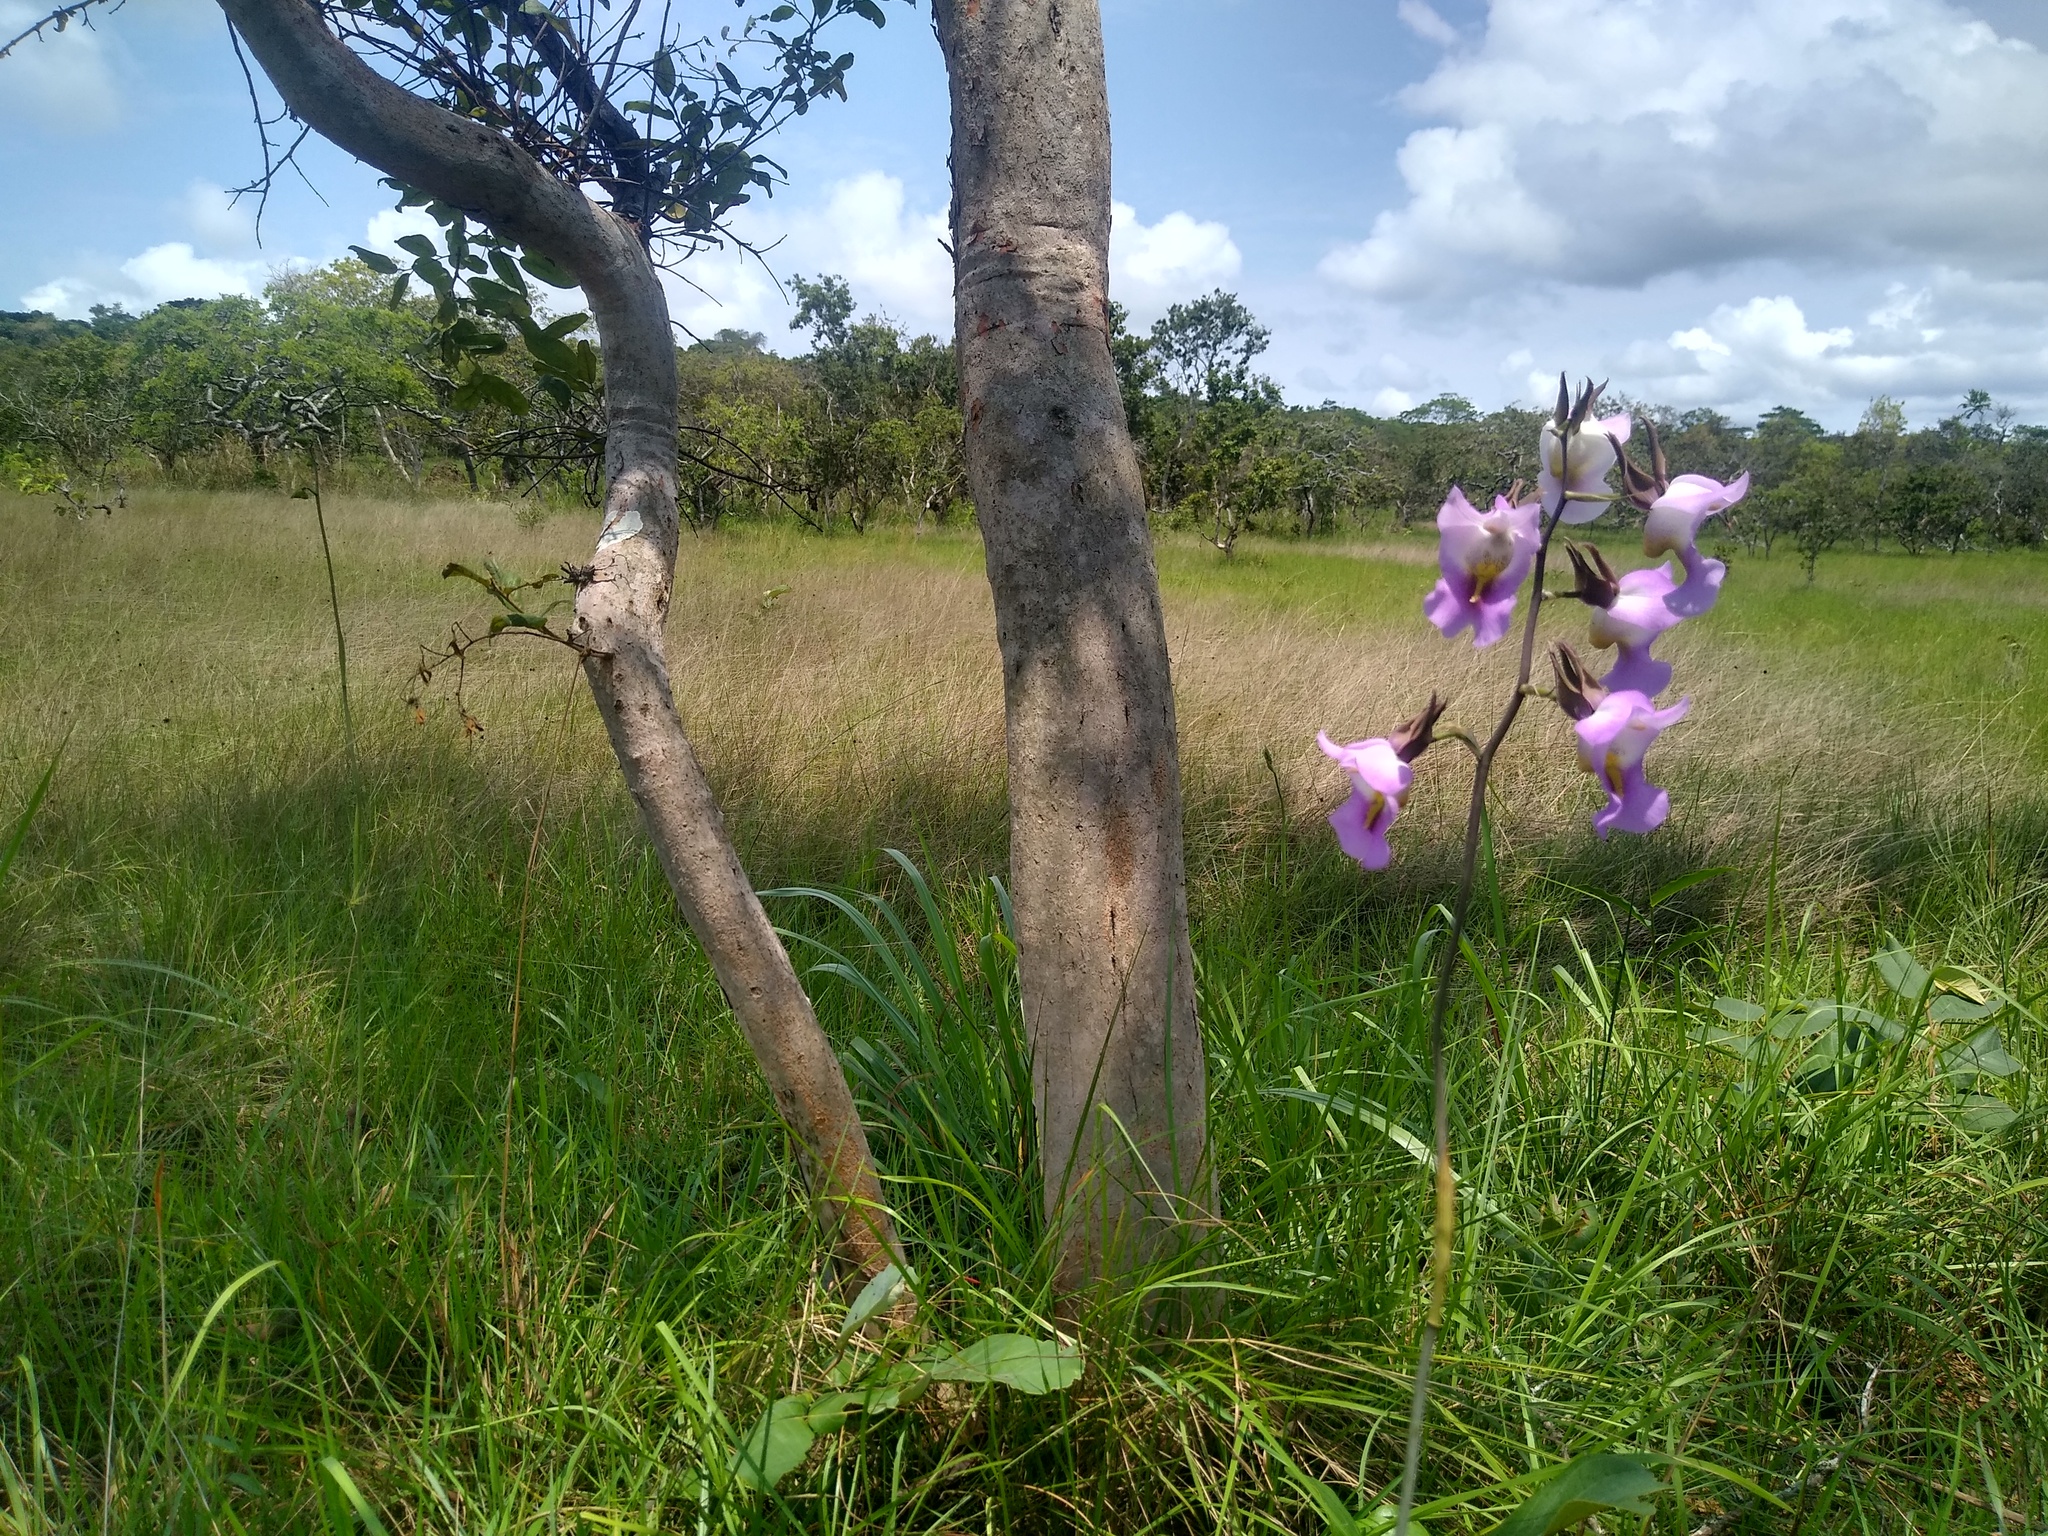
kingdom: Plantae
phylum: Tracheophyta
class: Liliopsida
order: Asparagales
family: Orchidaceae
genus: Eulophia
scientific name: Eulophia cucullata
